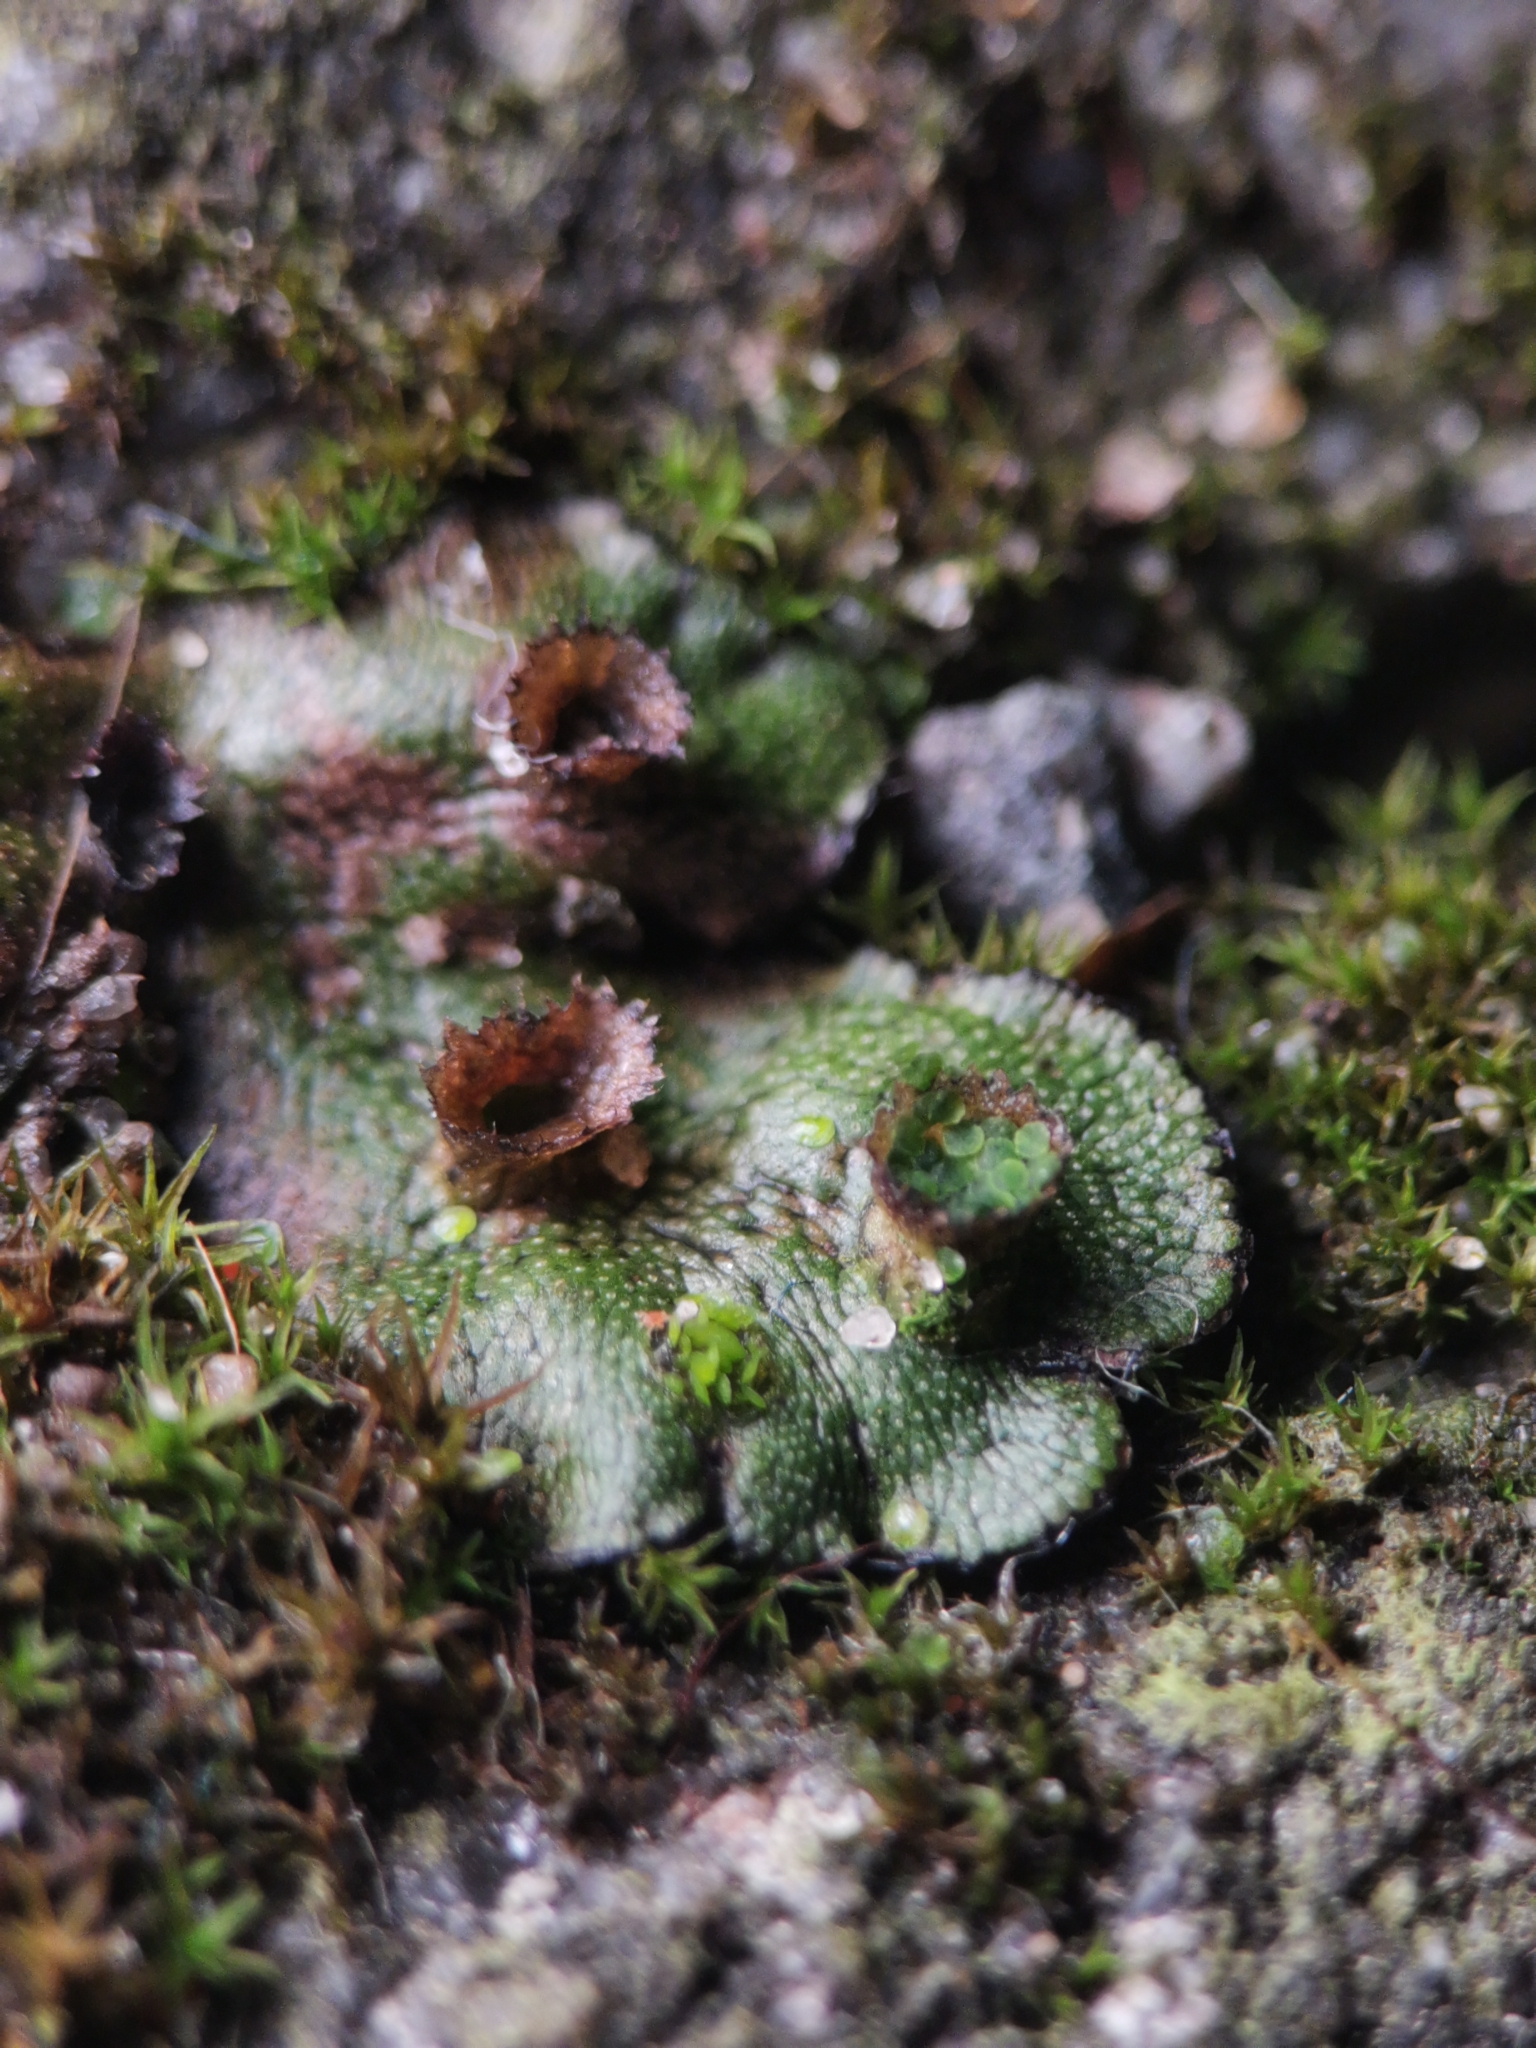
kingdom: Plantae
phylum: Marchantiophyta
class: Marchantiopsida
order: Marchantiales
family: Marchantiaceae
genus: Marchantia
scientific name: Marchantia polymorpha
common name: Common liverwort
